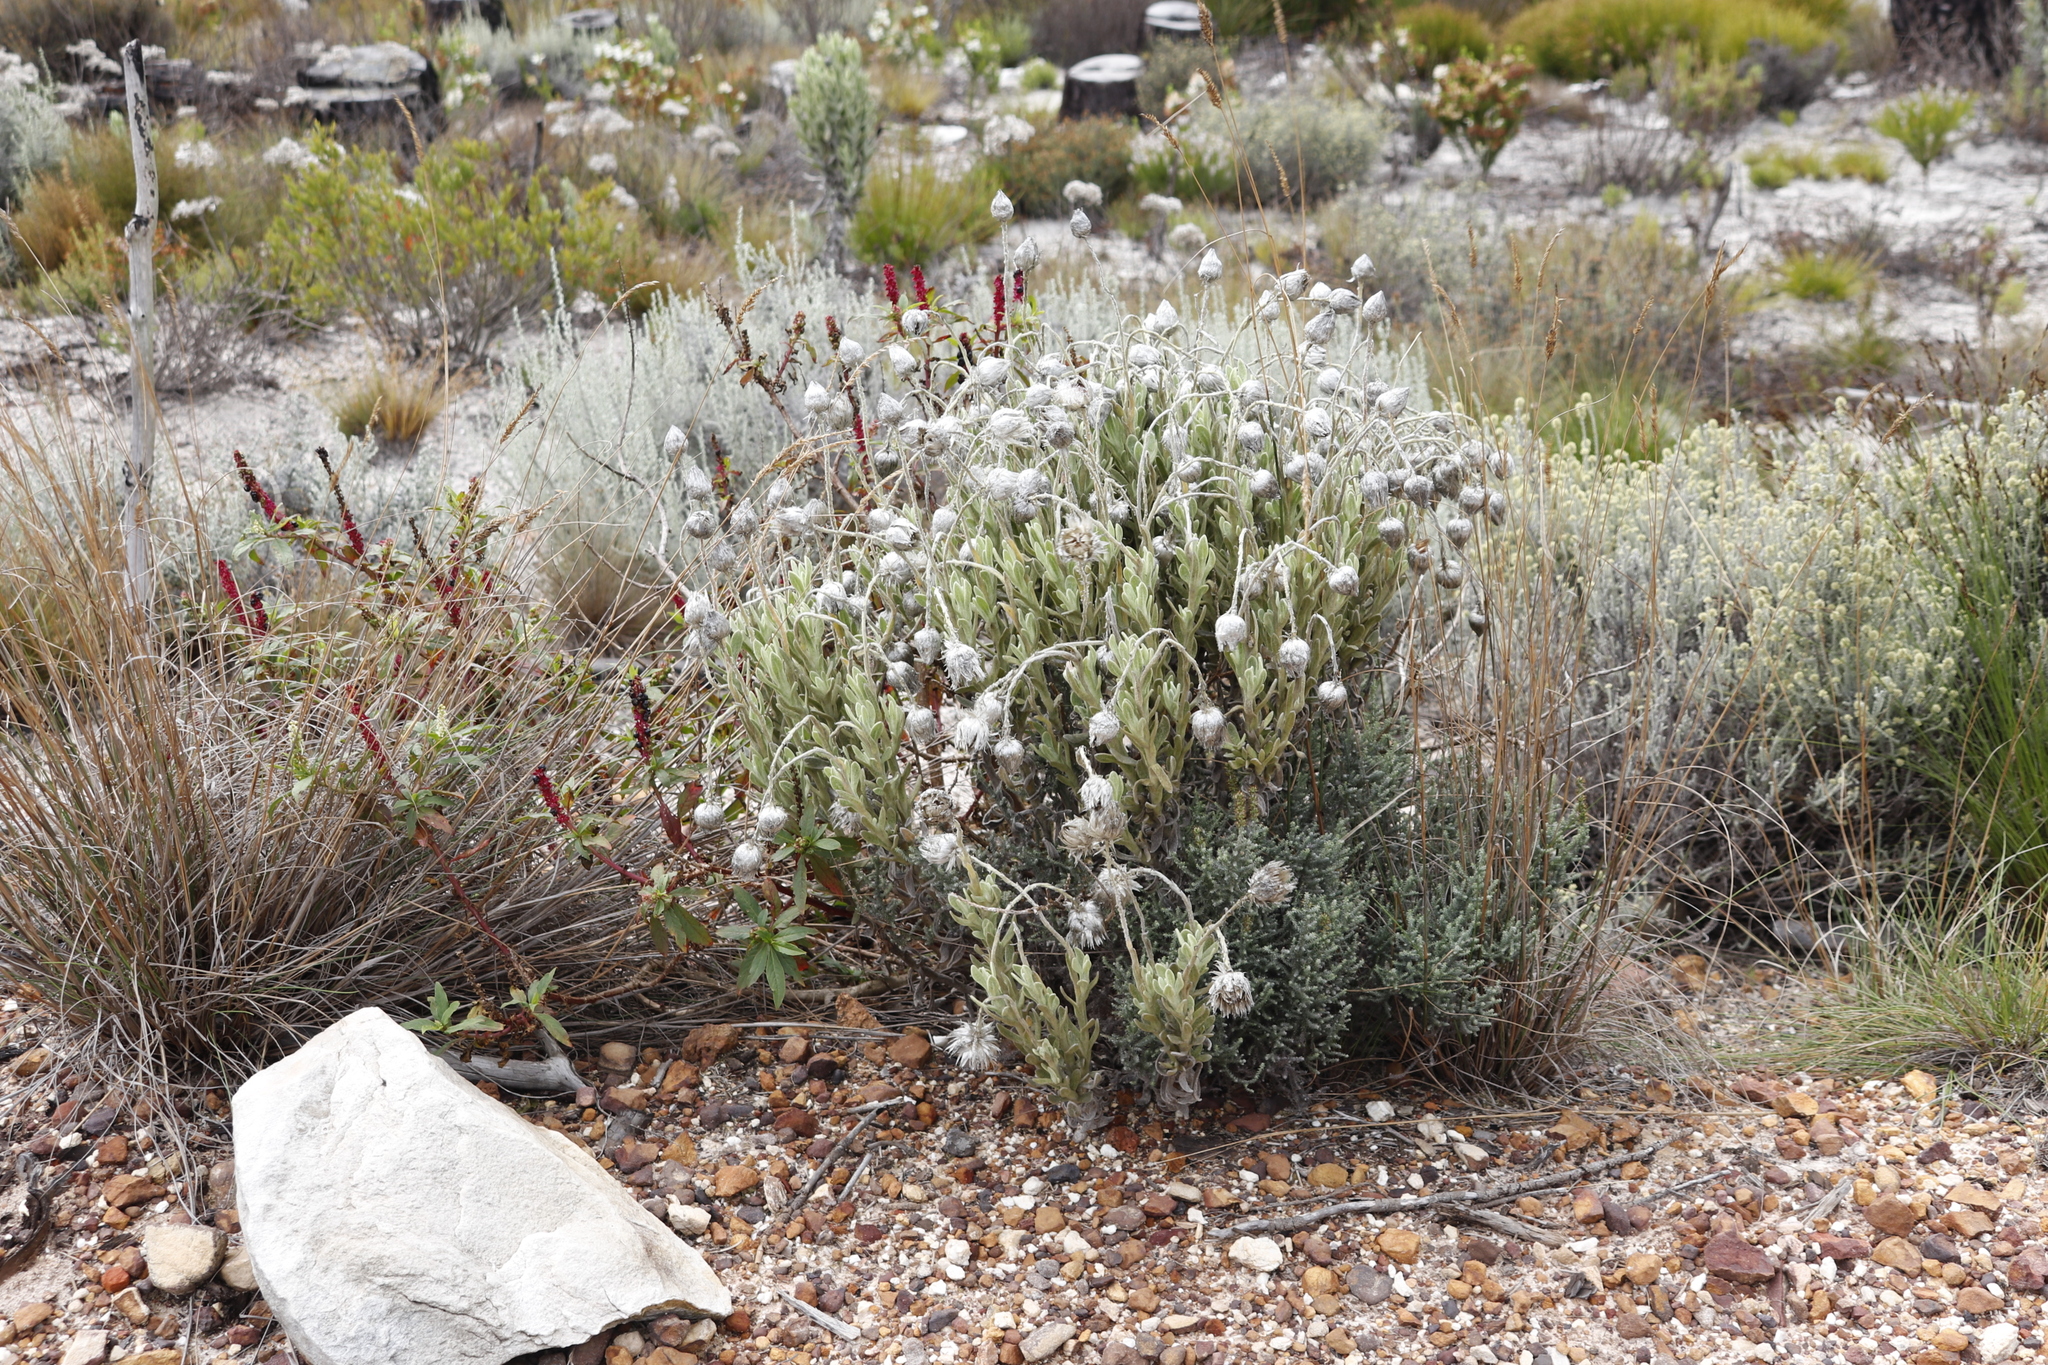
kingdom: Plantae
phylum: Tracheophyta
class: Magnoliopsida
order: Asterales
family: Asteraceae
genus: Syncarpha
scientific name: Syncarpha vestita
